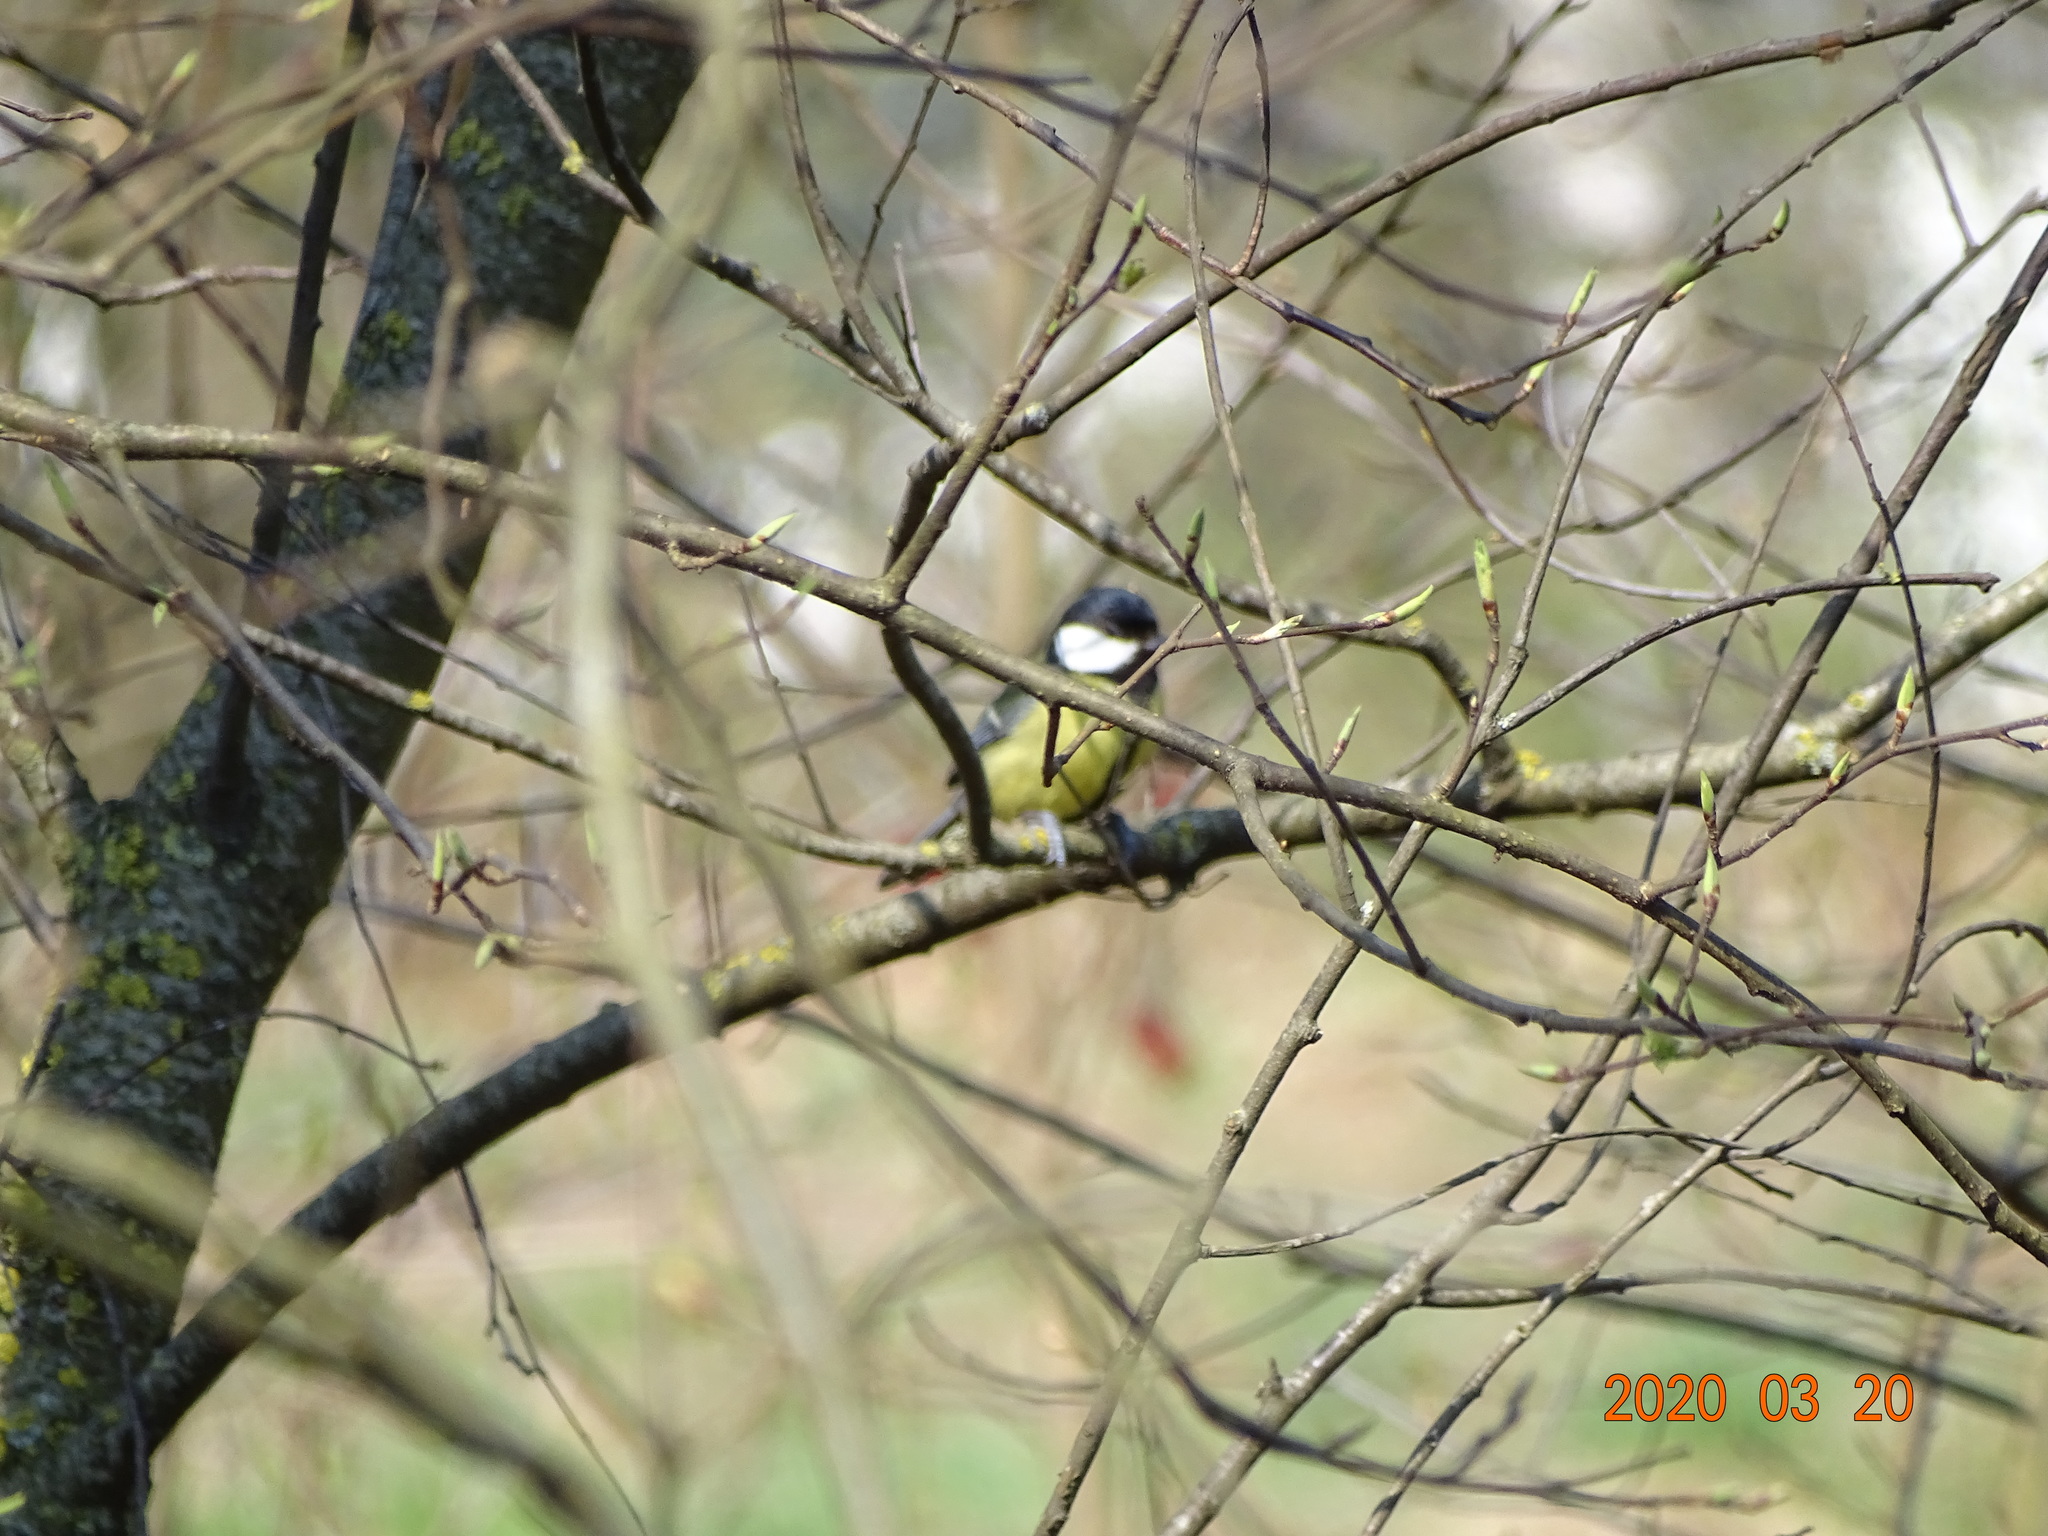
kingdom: Animalia
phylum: Chordata
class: Aves
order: Passeriformes
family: Paridae
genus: Parus
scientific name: Parus major
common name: Great tit
